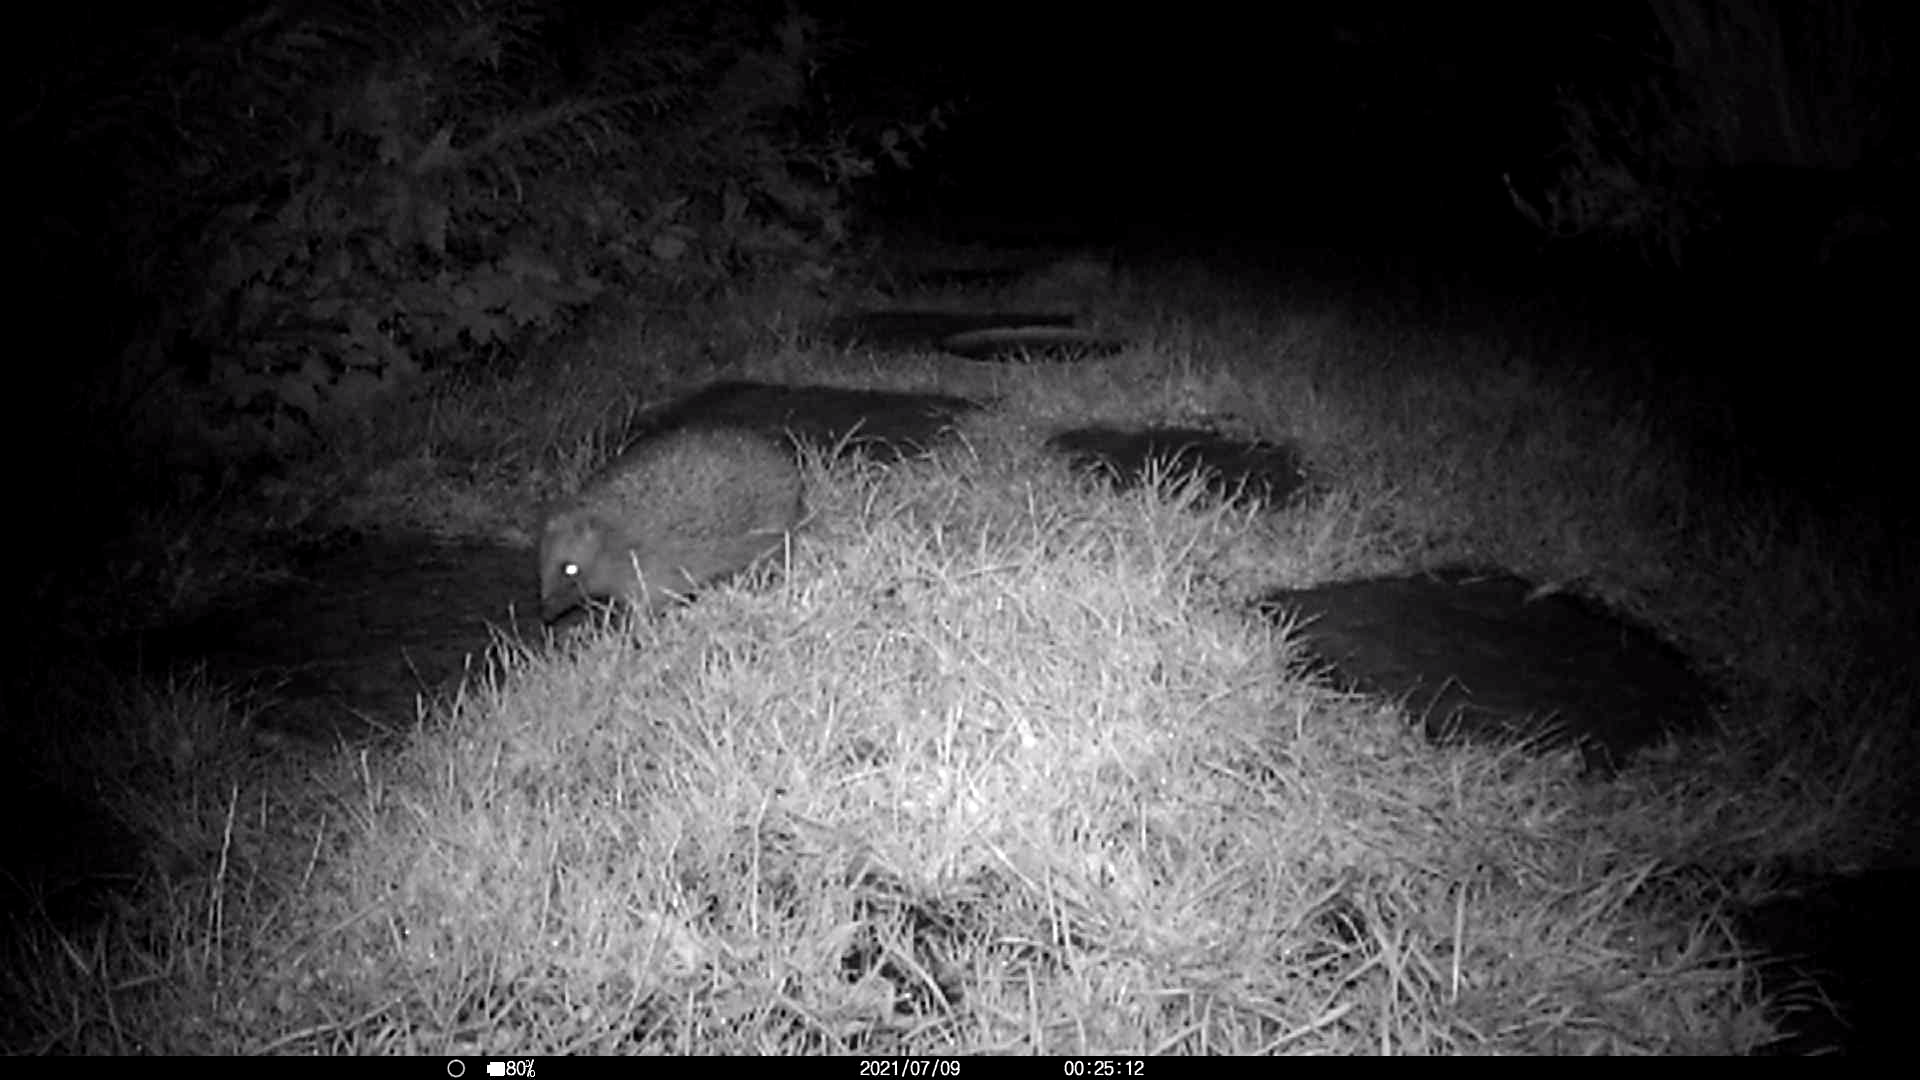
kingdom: Animalia
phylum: Chordata
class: Mammalia
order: Erinaceomorpha
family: Erinaceidae
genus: Erinaceus
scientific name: Erinaceus europaeus
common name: West european hedgehog
